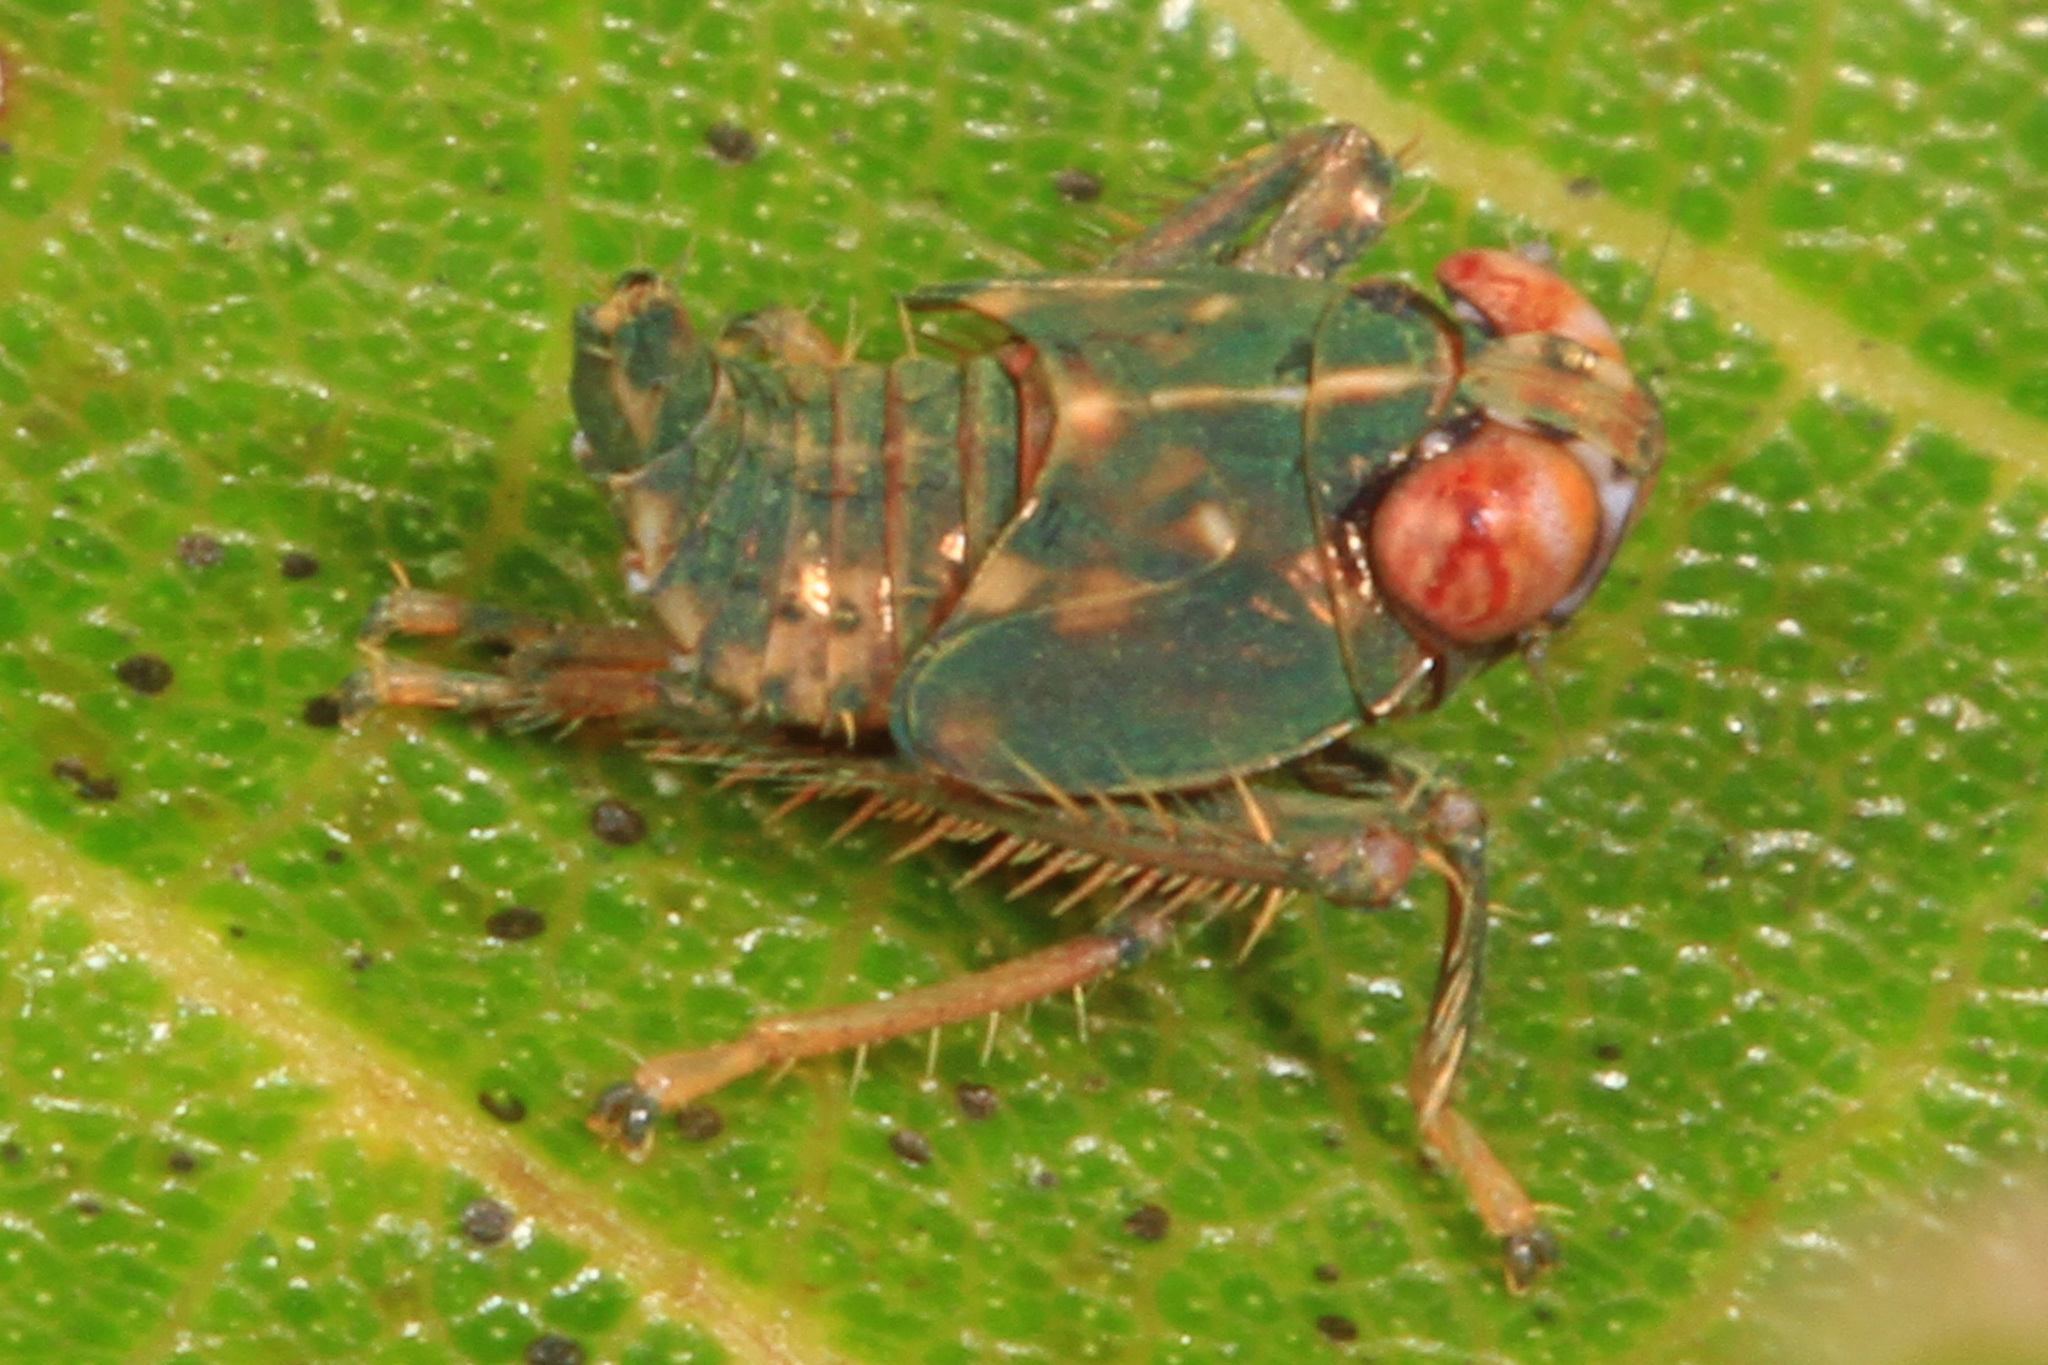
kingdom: Animalia
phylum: Arthropoda
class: Insecta
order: Hemiptera
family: Cicadellidae
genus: Jikradia
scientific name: Jikradia olitoria
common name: Coppery leafhopper
